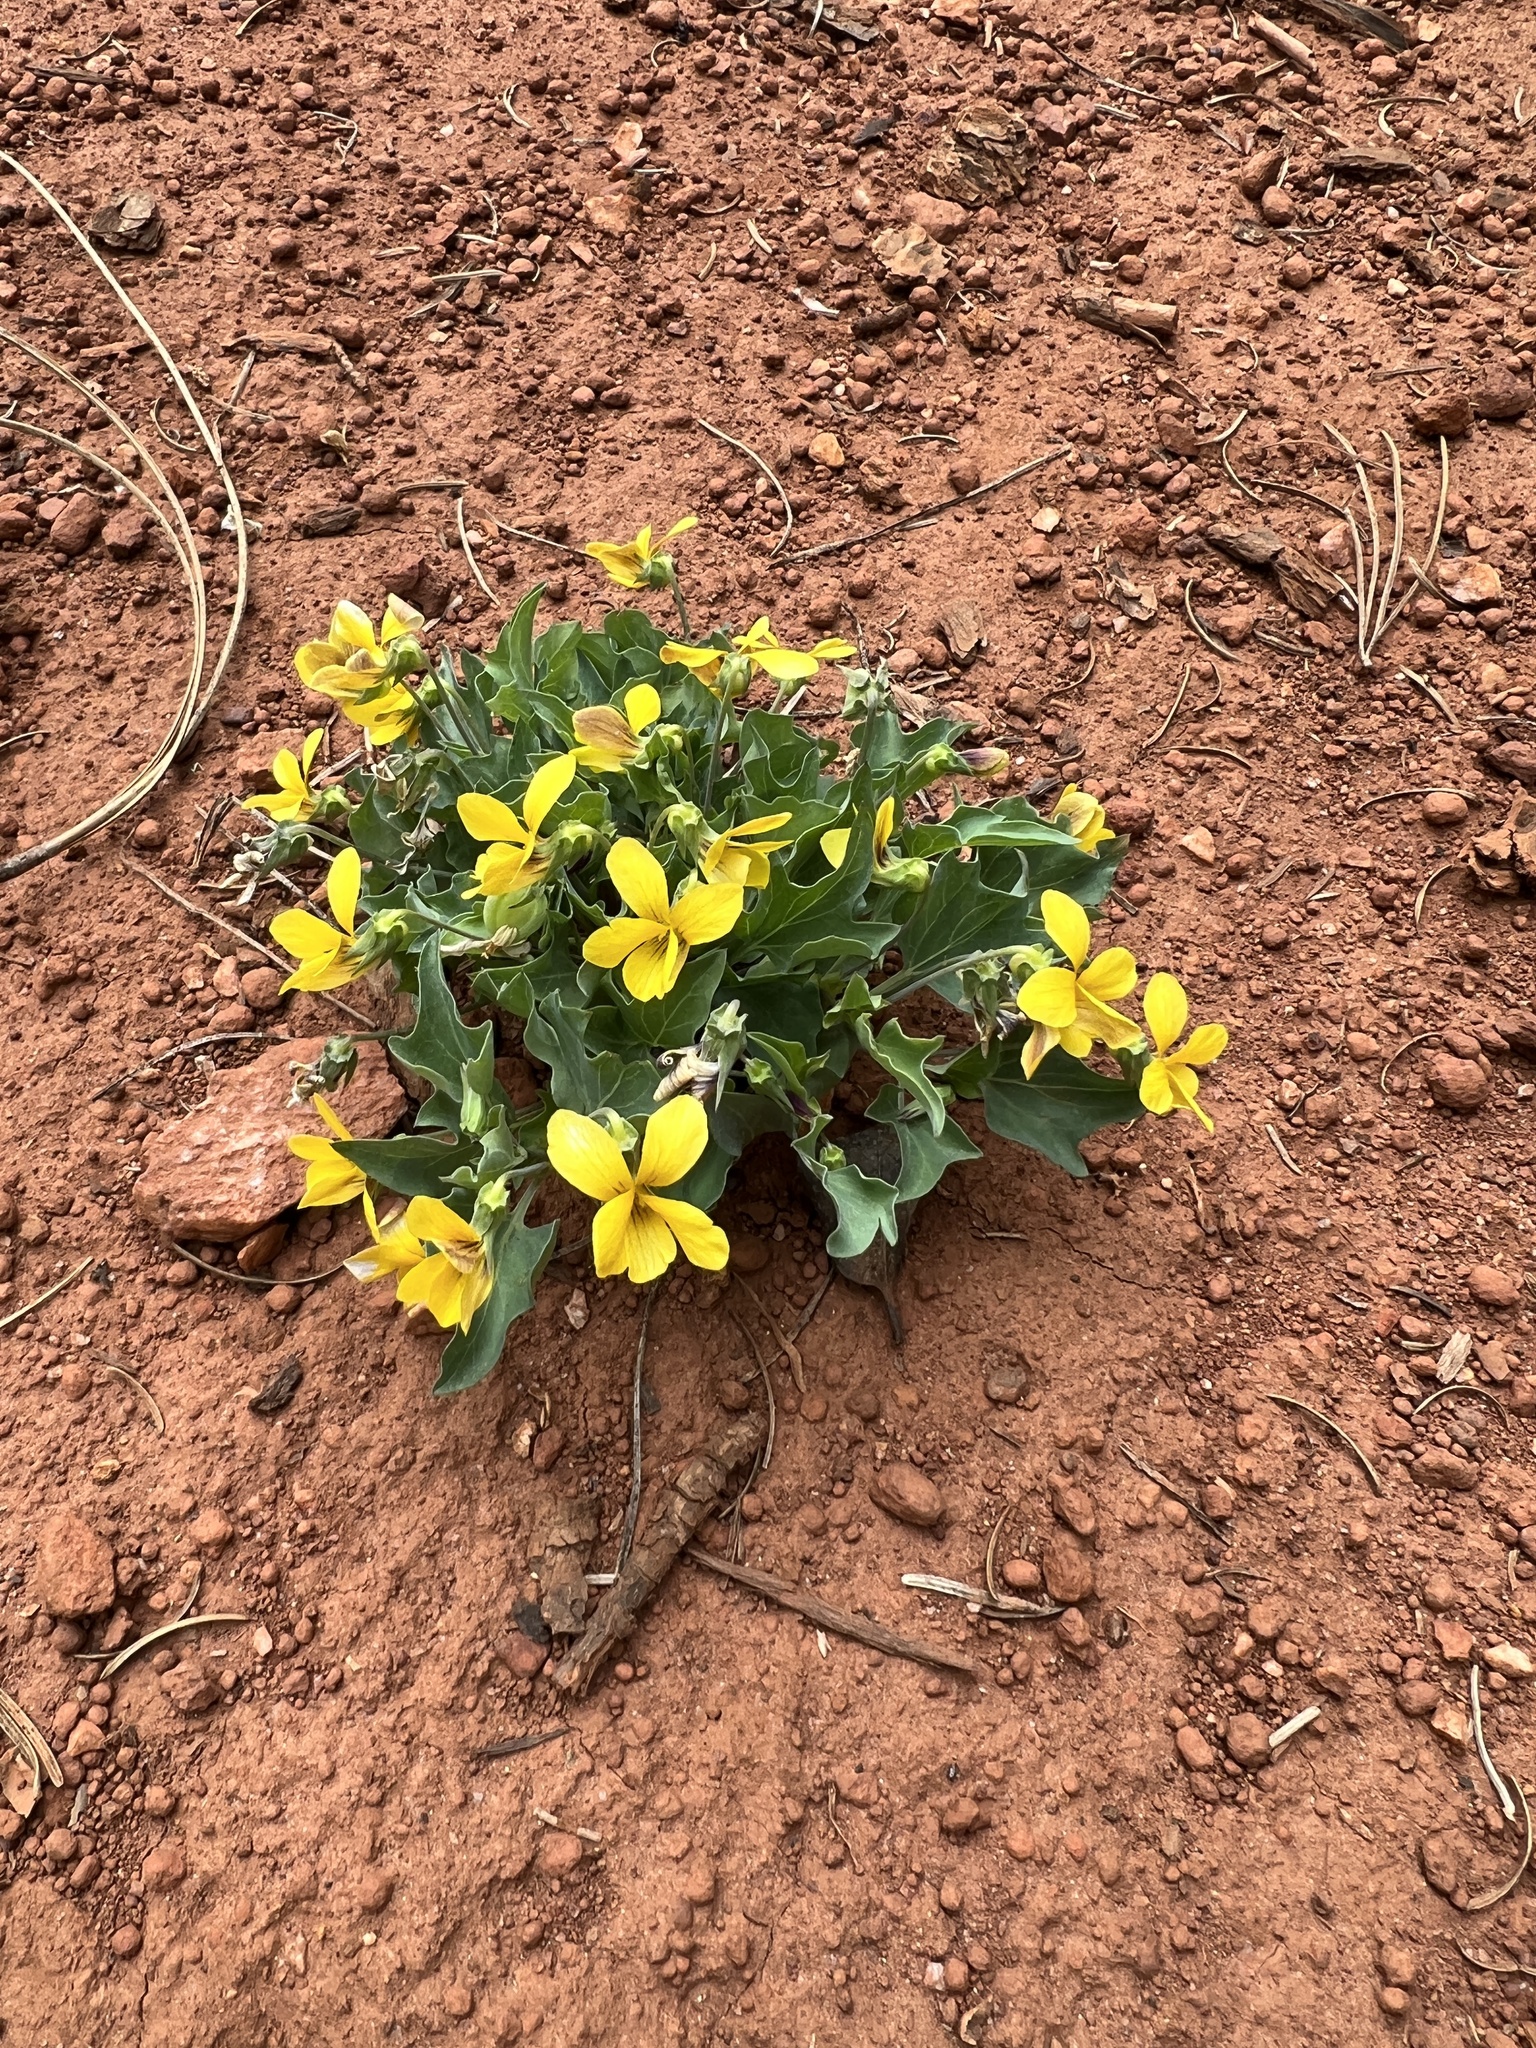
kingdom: Plantae
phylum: Tracheophyta
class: Magnoliopsida
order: Malpighiales
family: Violaceae
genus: Viola
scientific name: Viola lobata
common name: Pine violet
